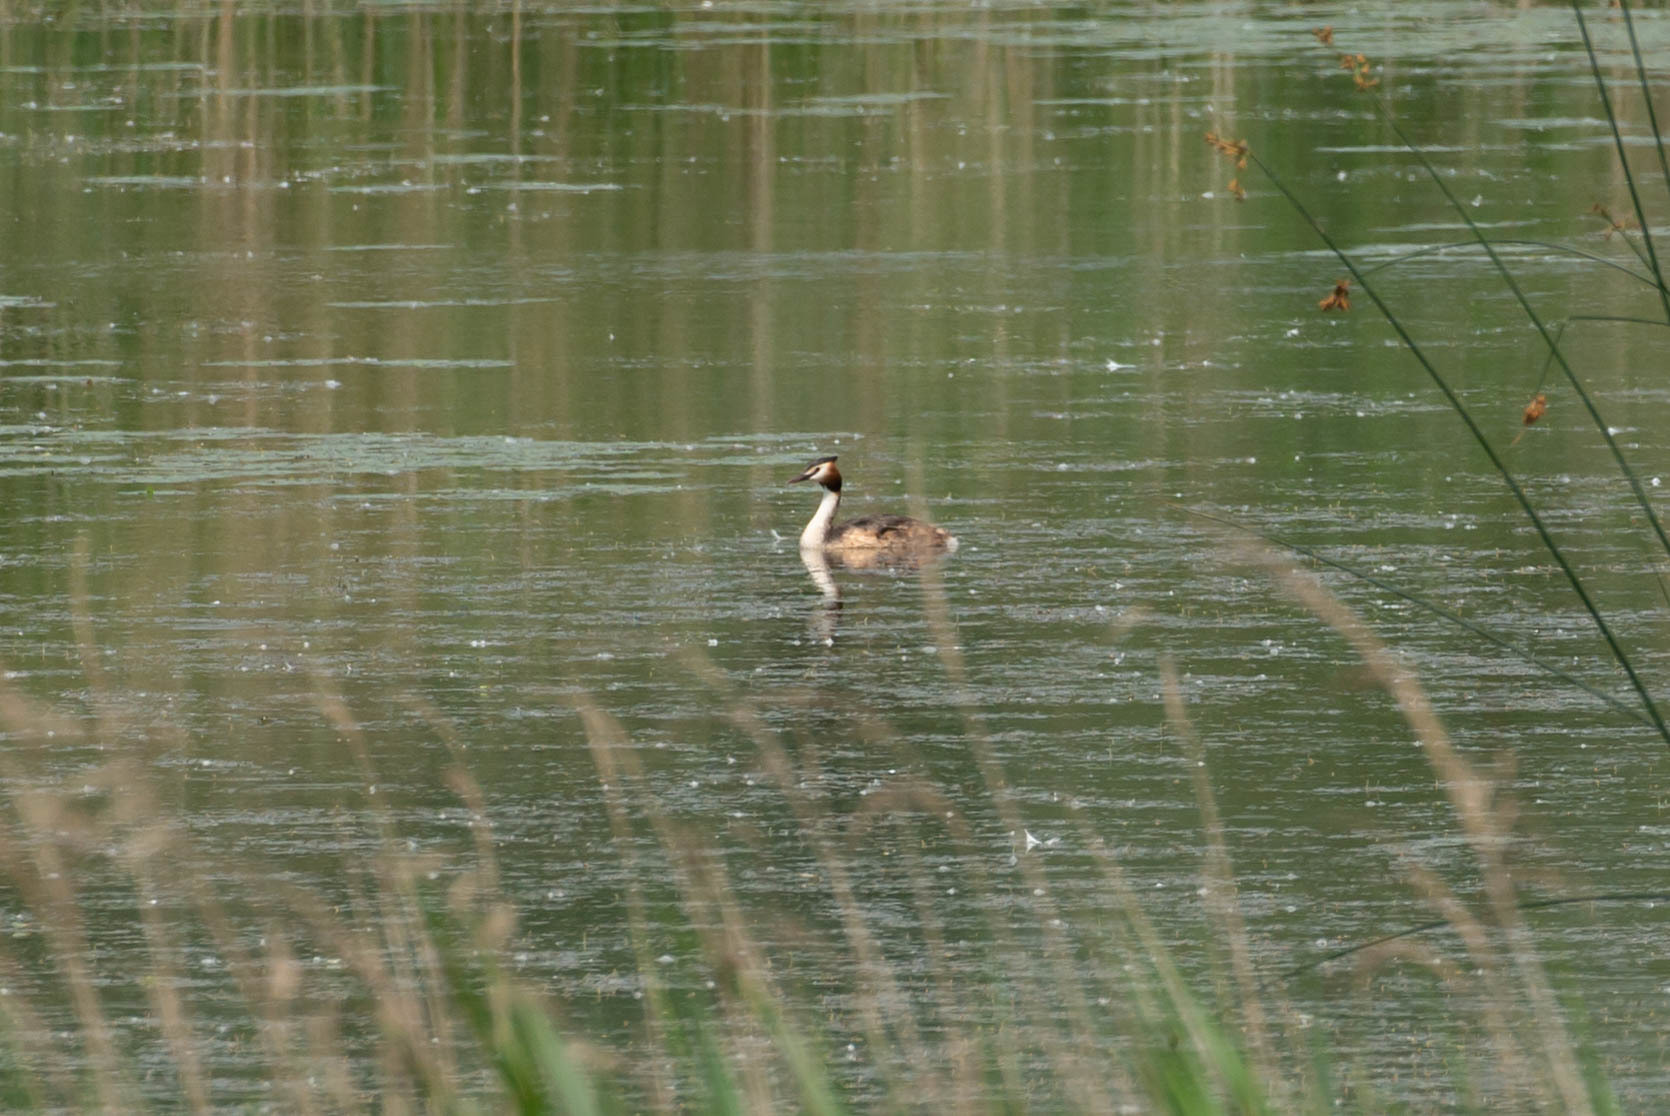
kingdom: Animalia
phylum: Chordata
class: Aves
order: Podicipediformes
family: Podicipedidae
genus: Podiceps
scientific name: Podiceps cristatus
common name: Great crested grebe
